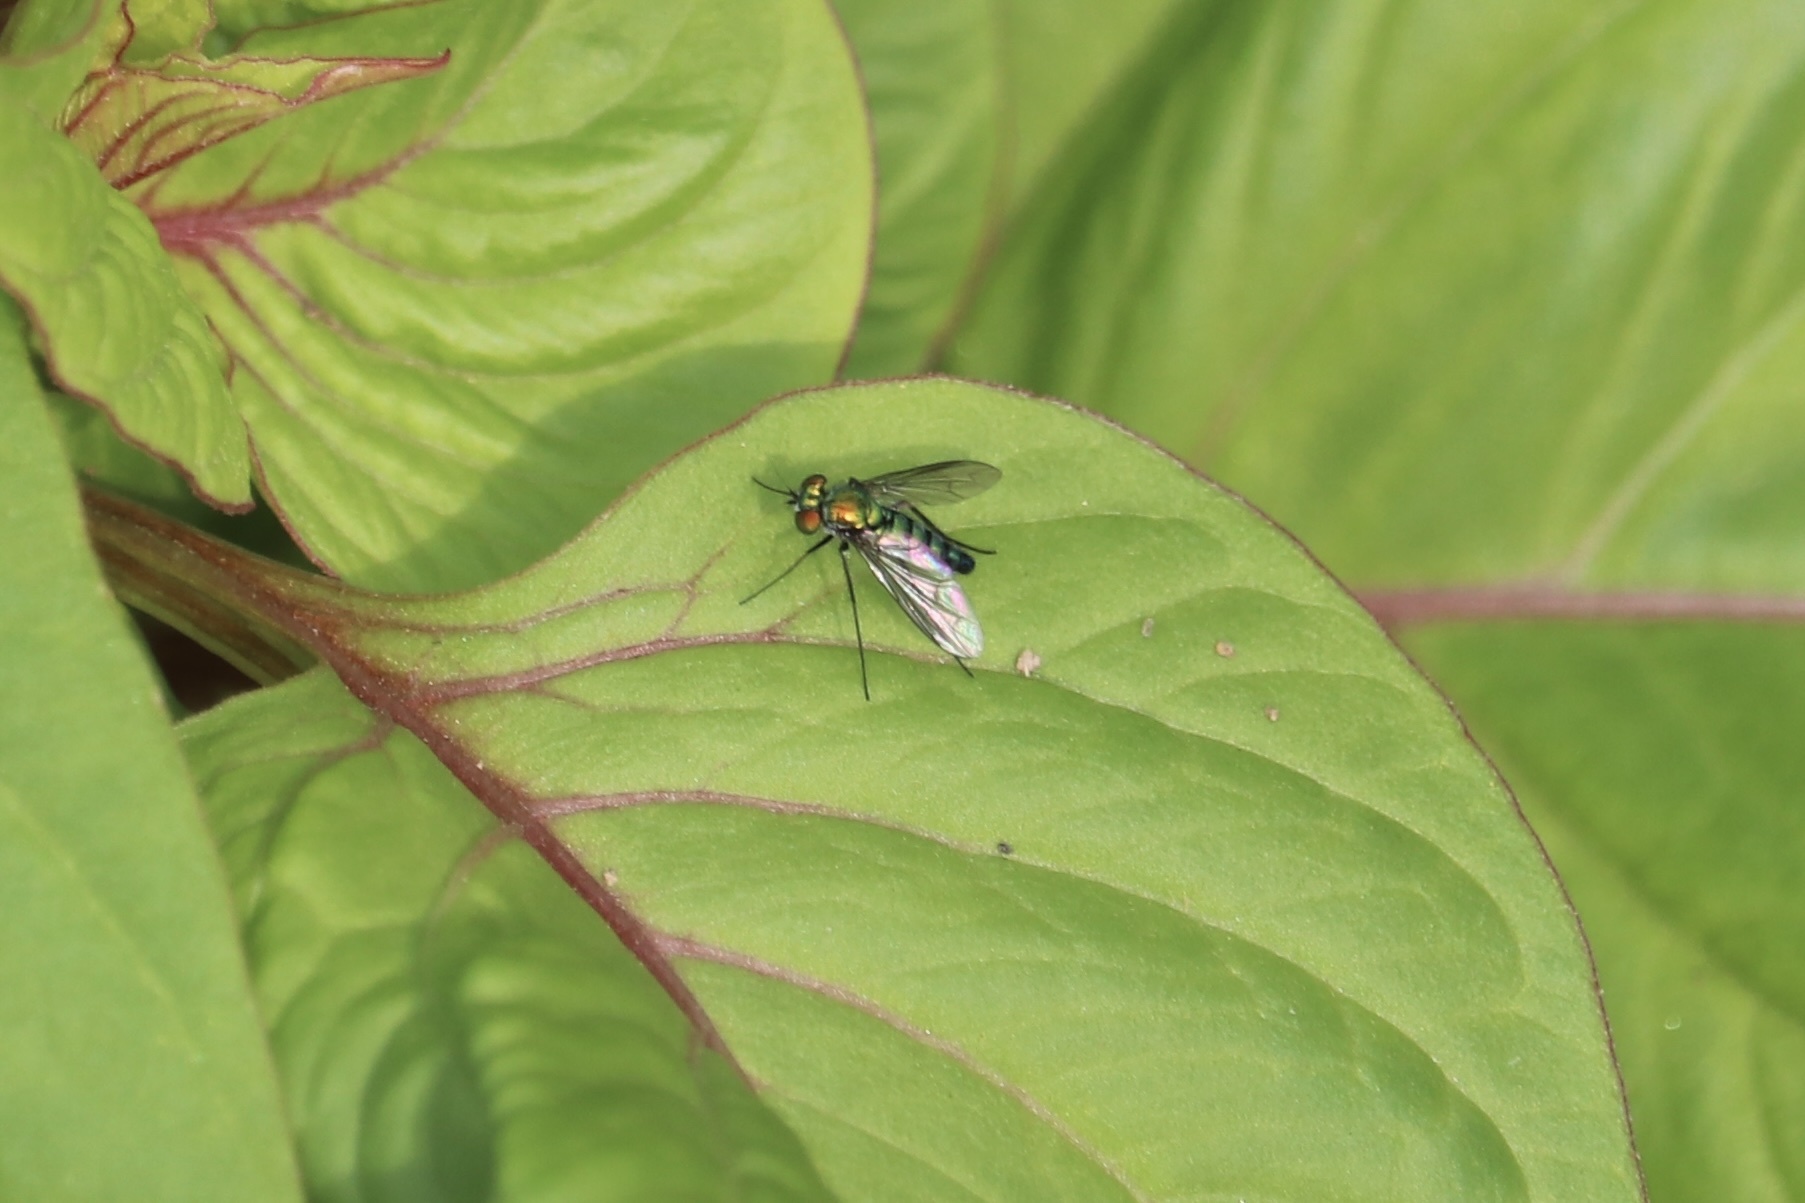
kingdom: Animalia
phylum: Arthropoda
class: Insecta
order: Diptera
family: Dolichopodidae
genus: Condylostylus
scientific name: Condylostylus longicornis
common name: Long-legged fly
